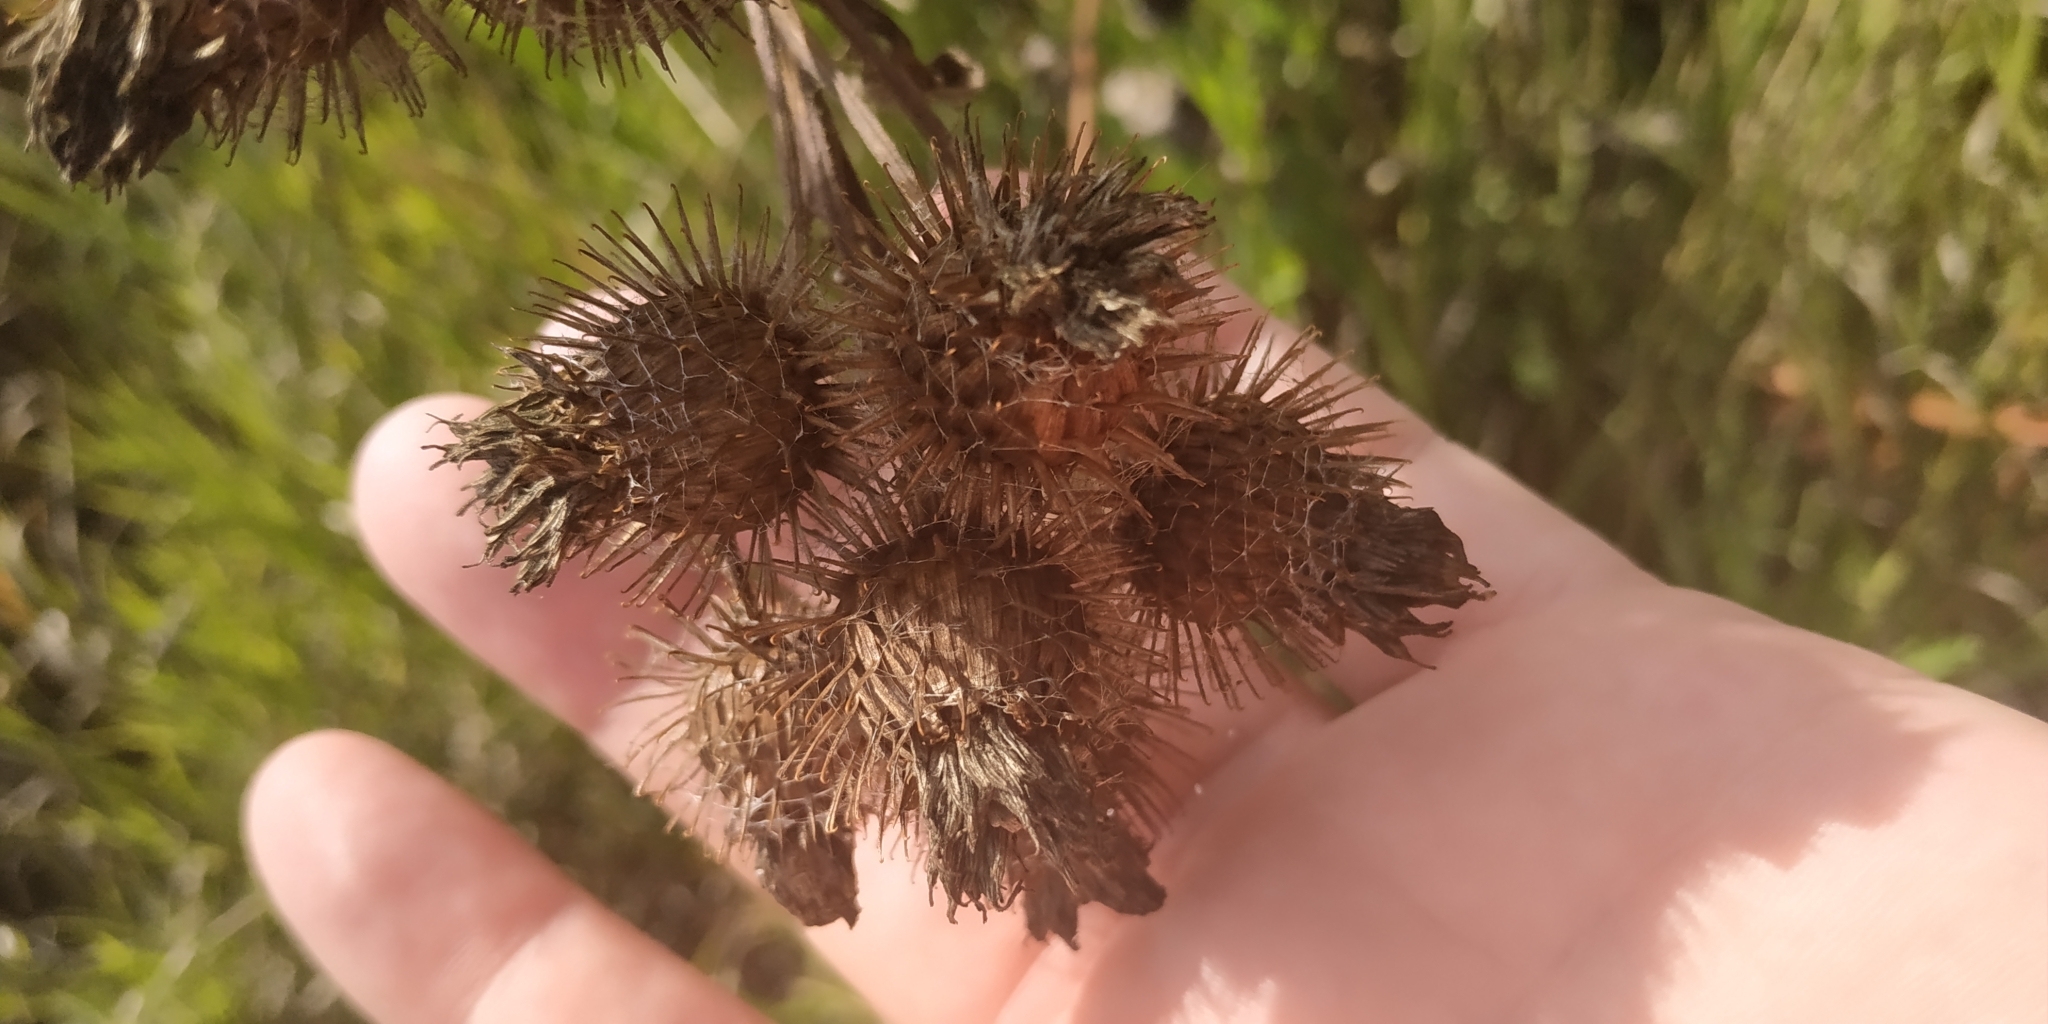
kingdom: Plantae
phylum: Tracheophyta
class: Magnoliopsida
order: Asterales
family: Asteraceae
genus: Arctium
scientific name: Arctium tomentosum
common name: Woolly burdock
